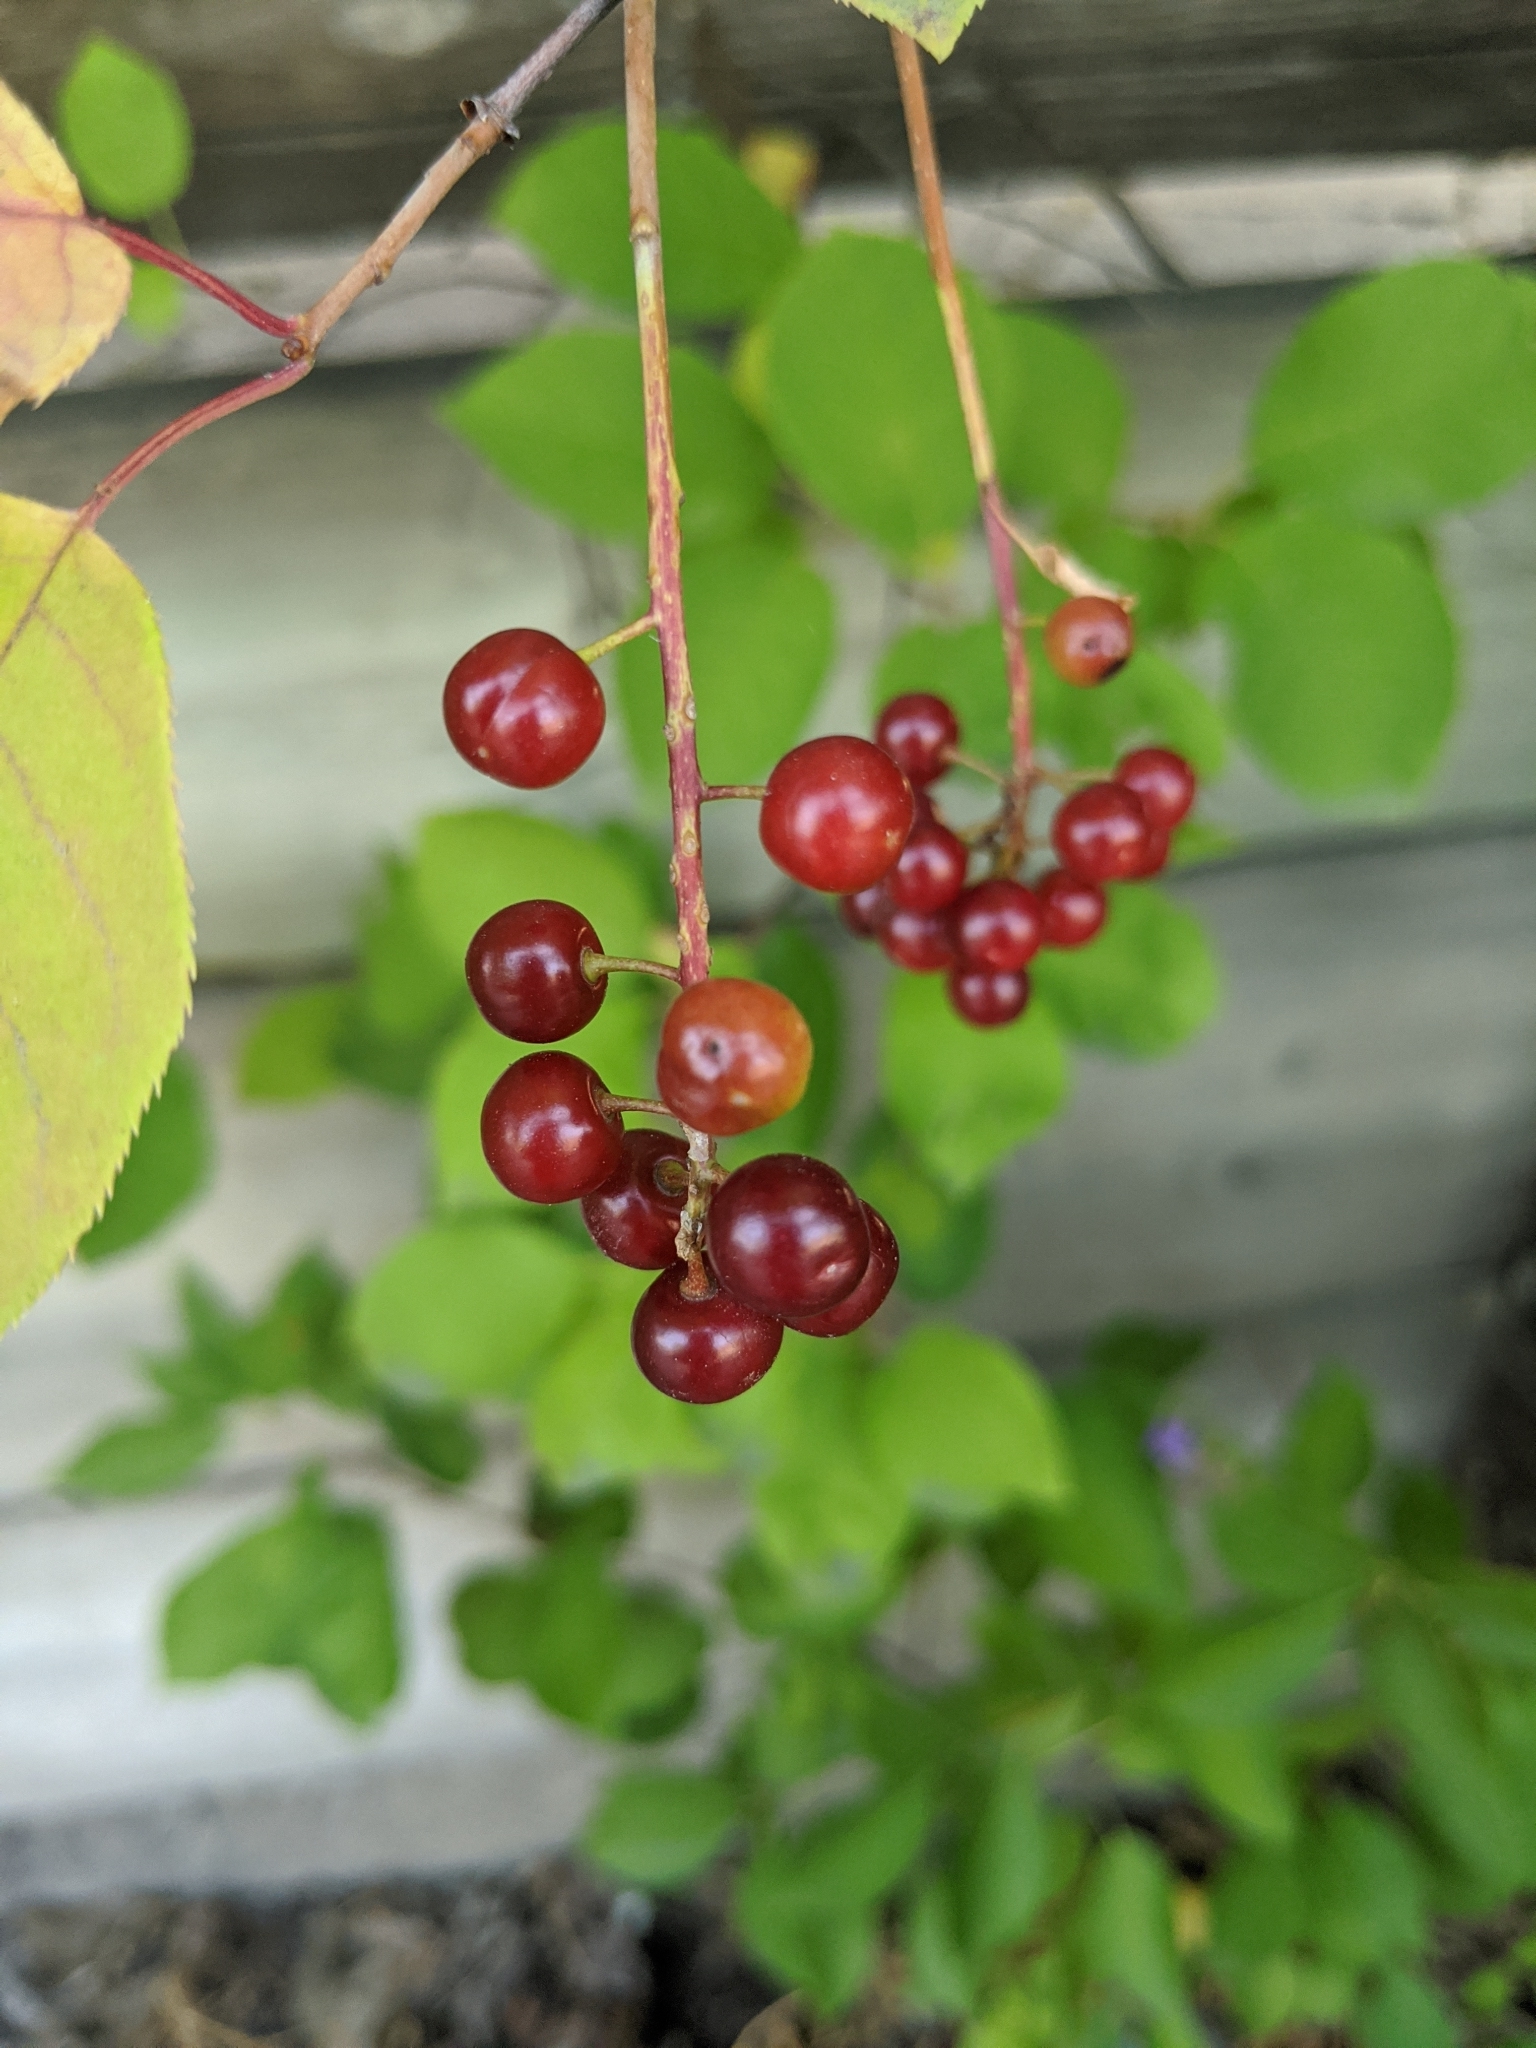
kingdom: Plantae
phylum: Tracheophyta
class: Magnoliopsida
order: Rosales
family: Rosaceae
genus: Prunus
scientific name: Prunus virginiana
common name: Chokecherry
